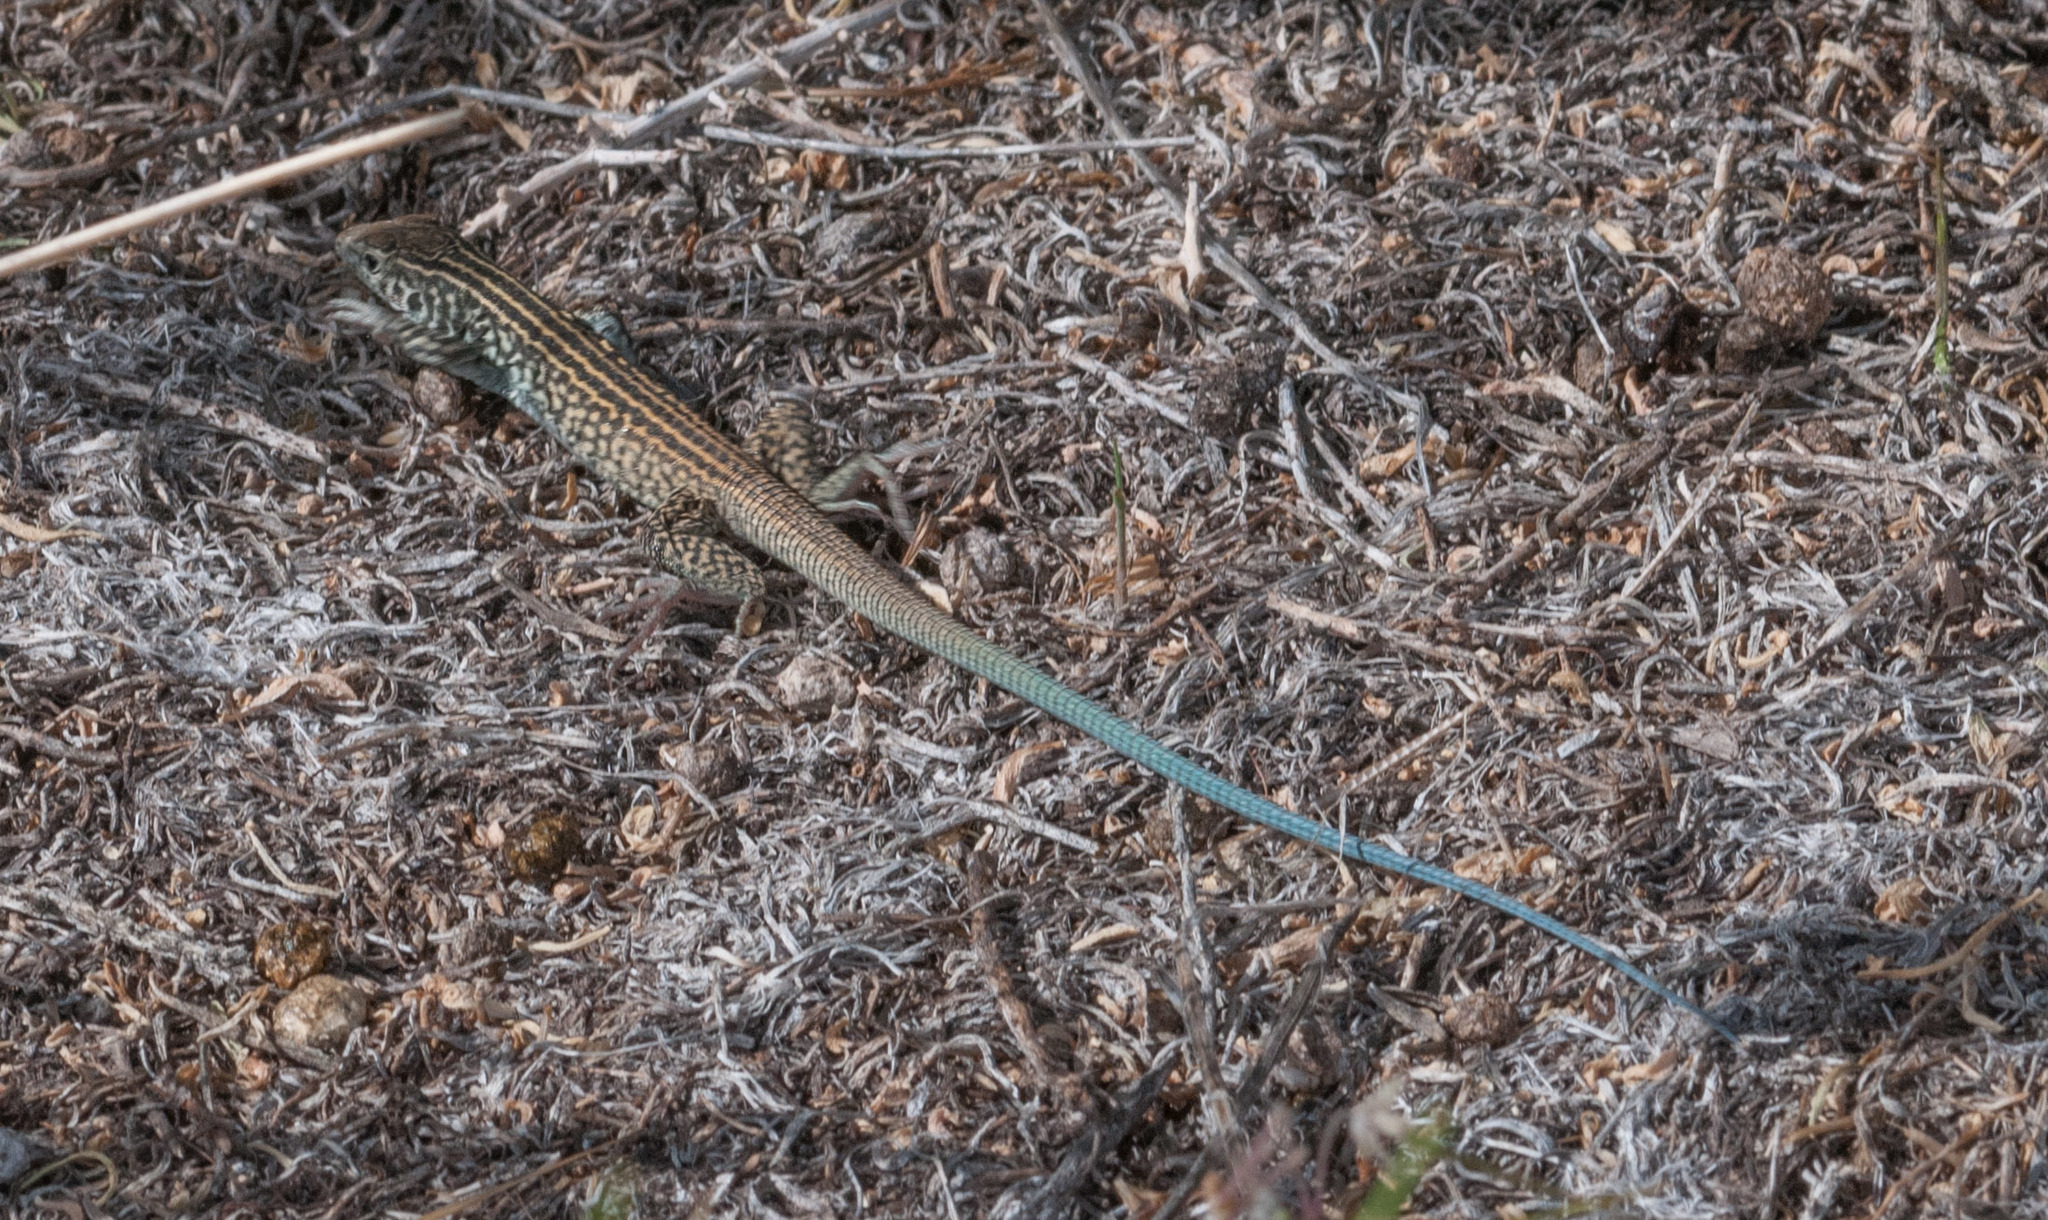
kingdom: Animalia
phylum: Chordata
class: Squamata
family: Teiidae
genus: Aspidoscelis
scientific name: Aspidoscelis tigris
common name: Tiger whiptail
